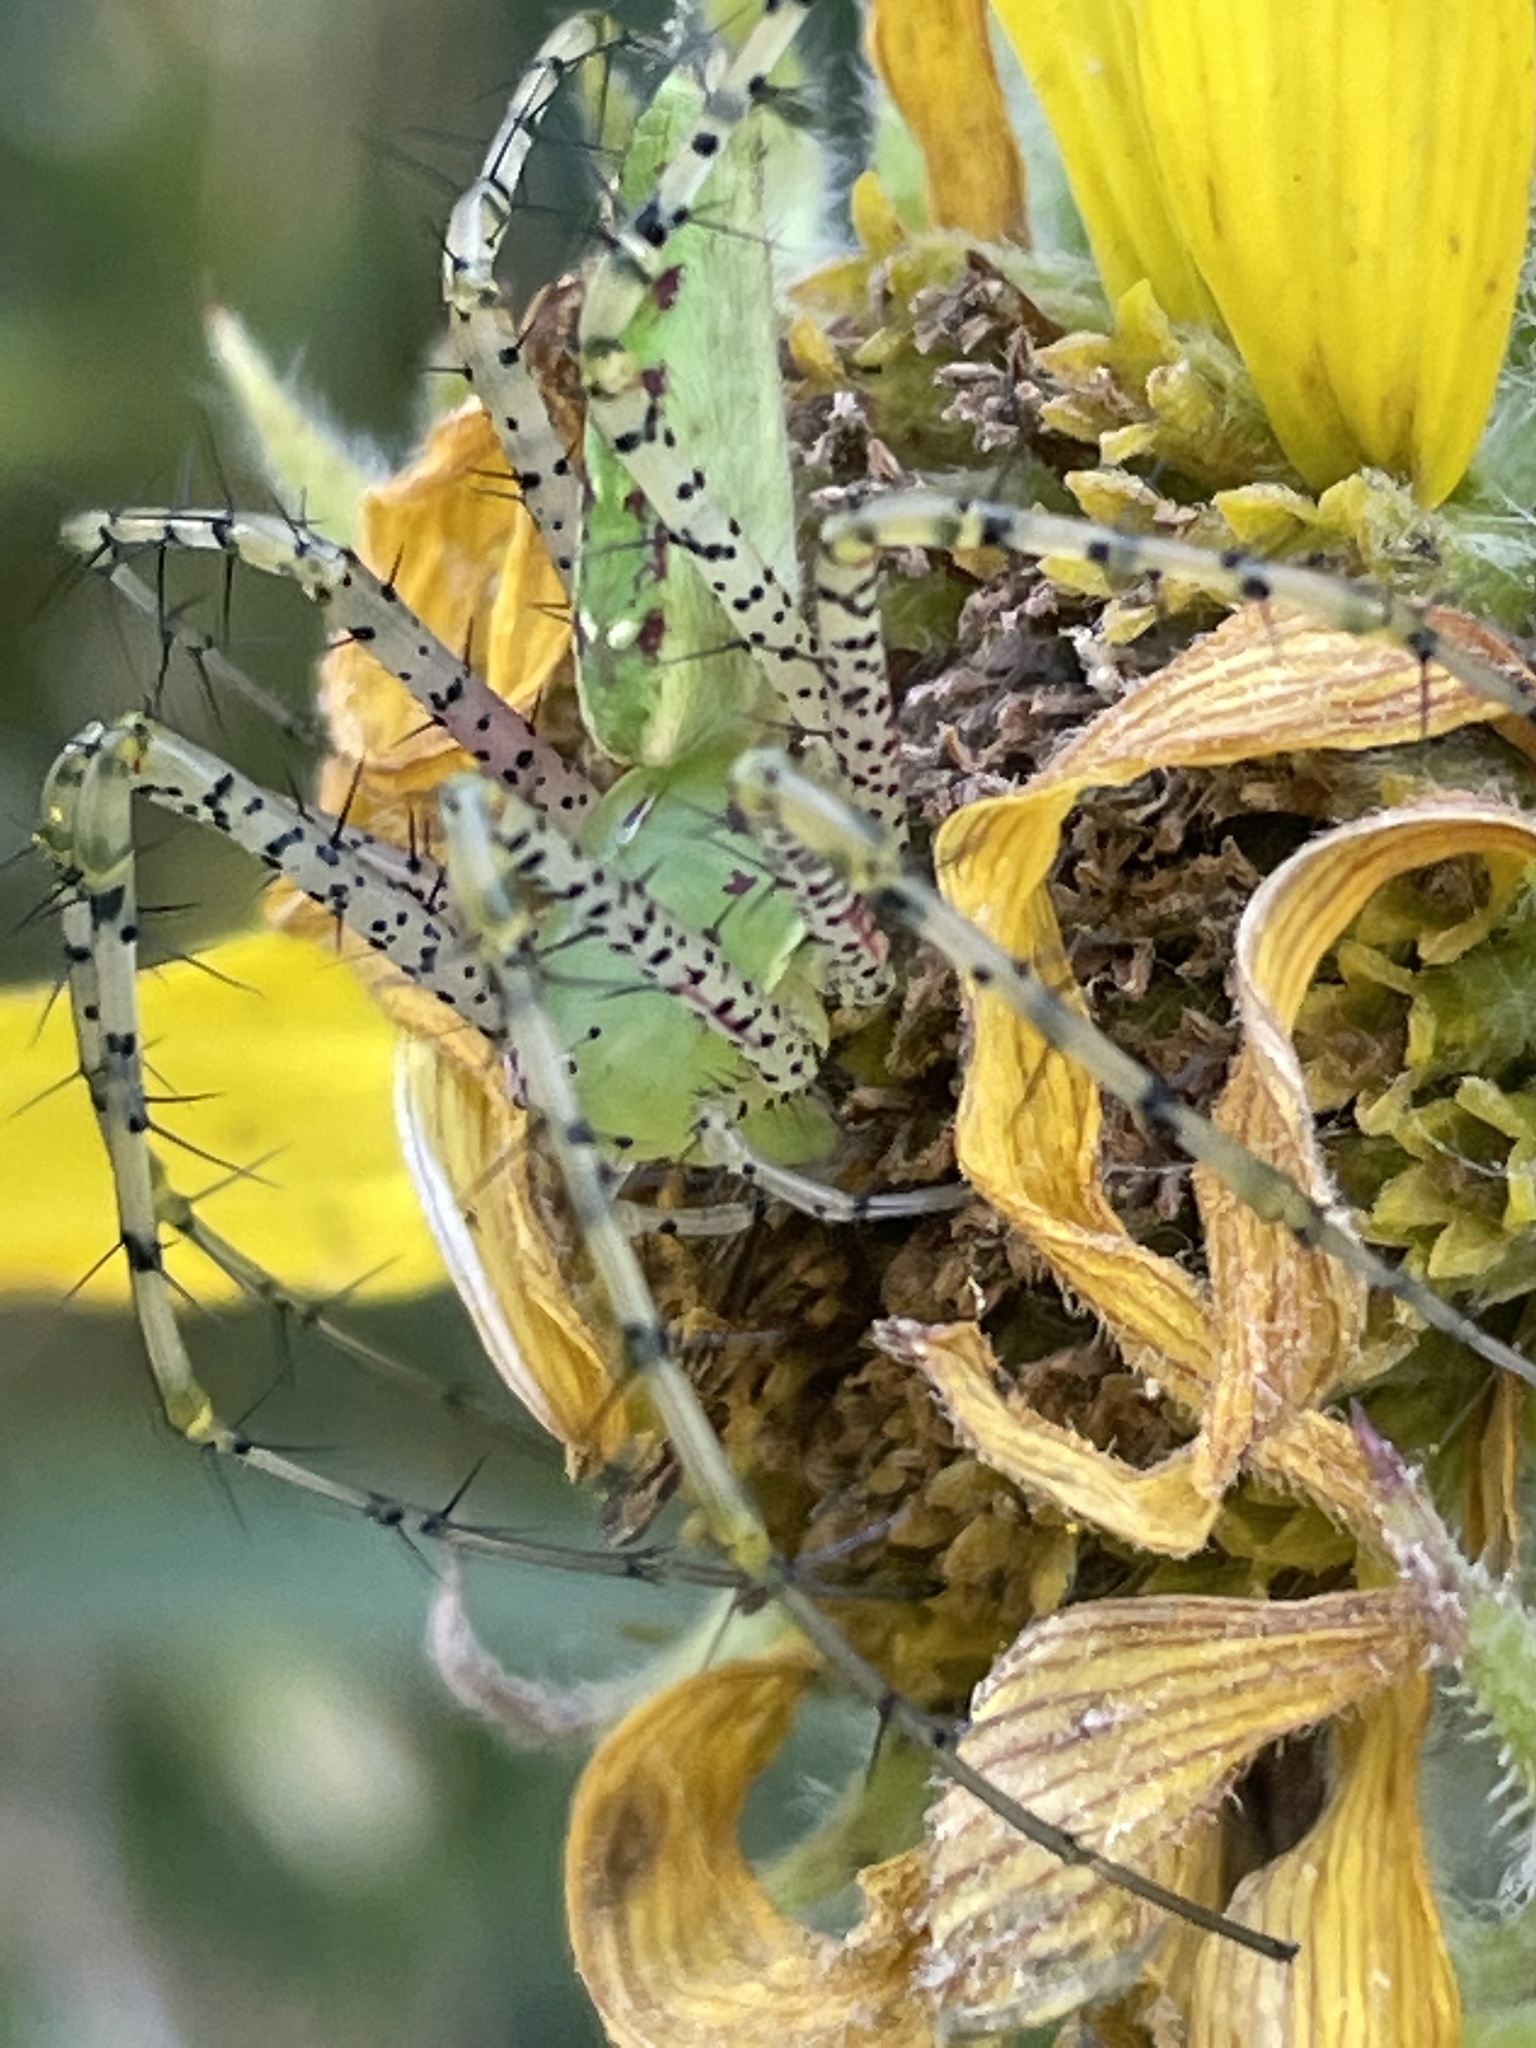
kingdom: Animalia
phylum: Arthropoda
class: Arachnida
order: Araneae
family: Oxyopidae
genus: Peucetia
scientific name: Peucetia viridans
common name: Lynx spiders
